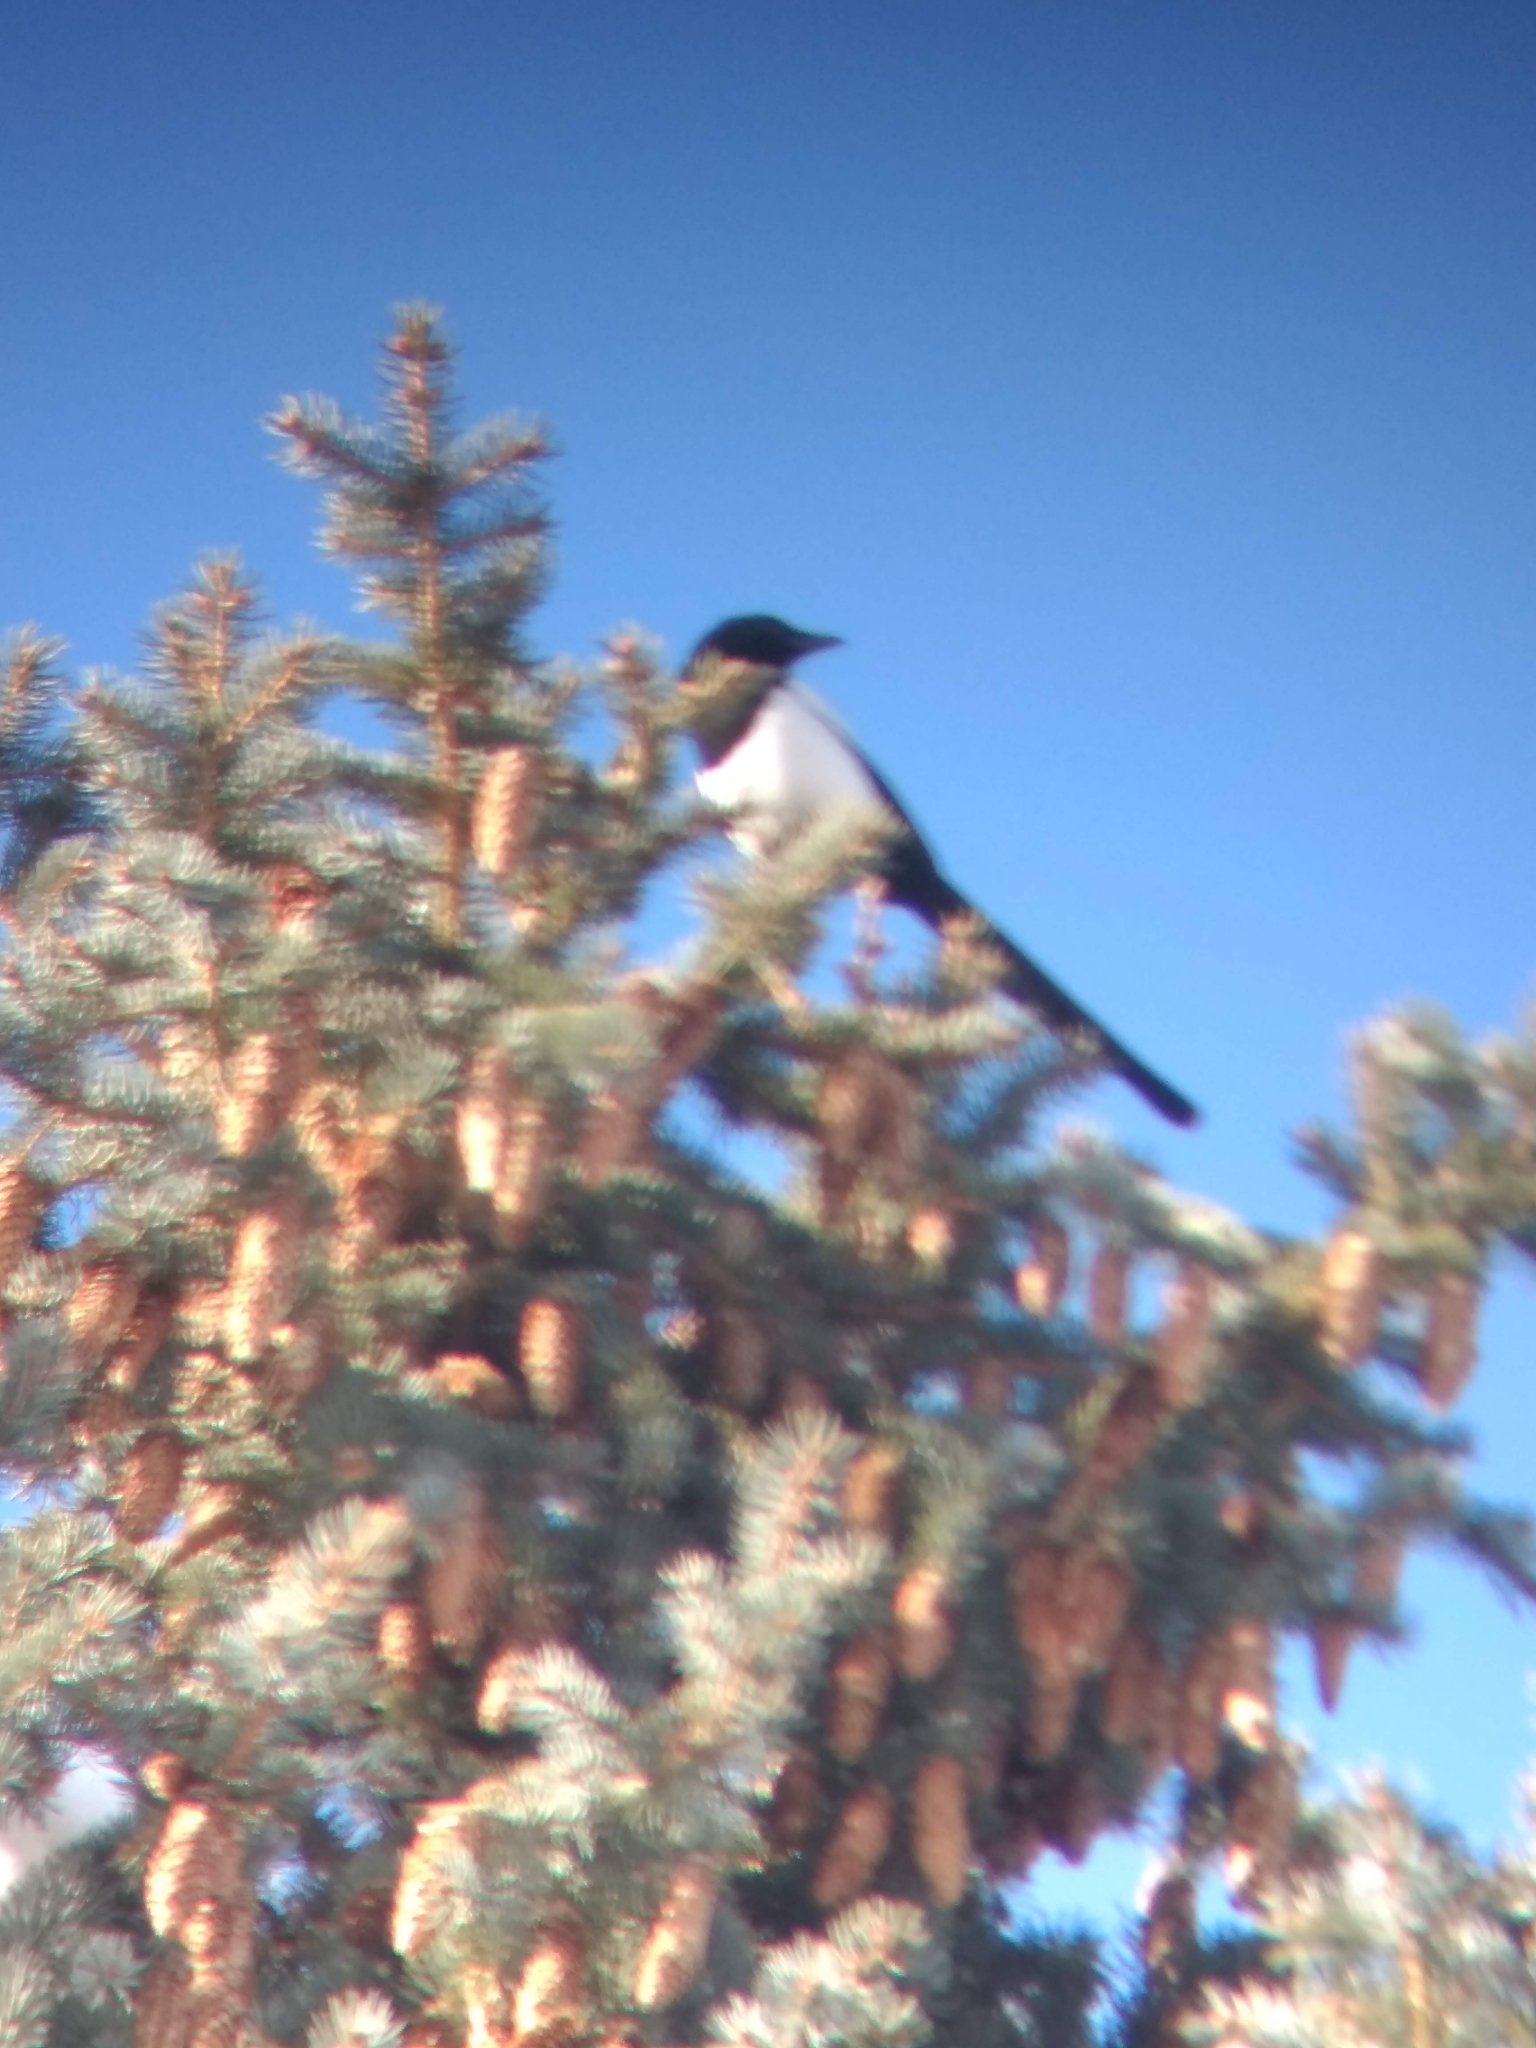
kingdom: Animalia
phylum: Chordata
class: Aves
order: Passeriformes
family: Corvidae
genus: Pica
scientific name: Pica hudsonia
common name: Black-billed magpie
